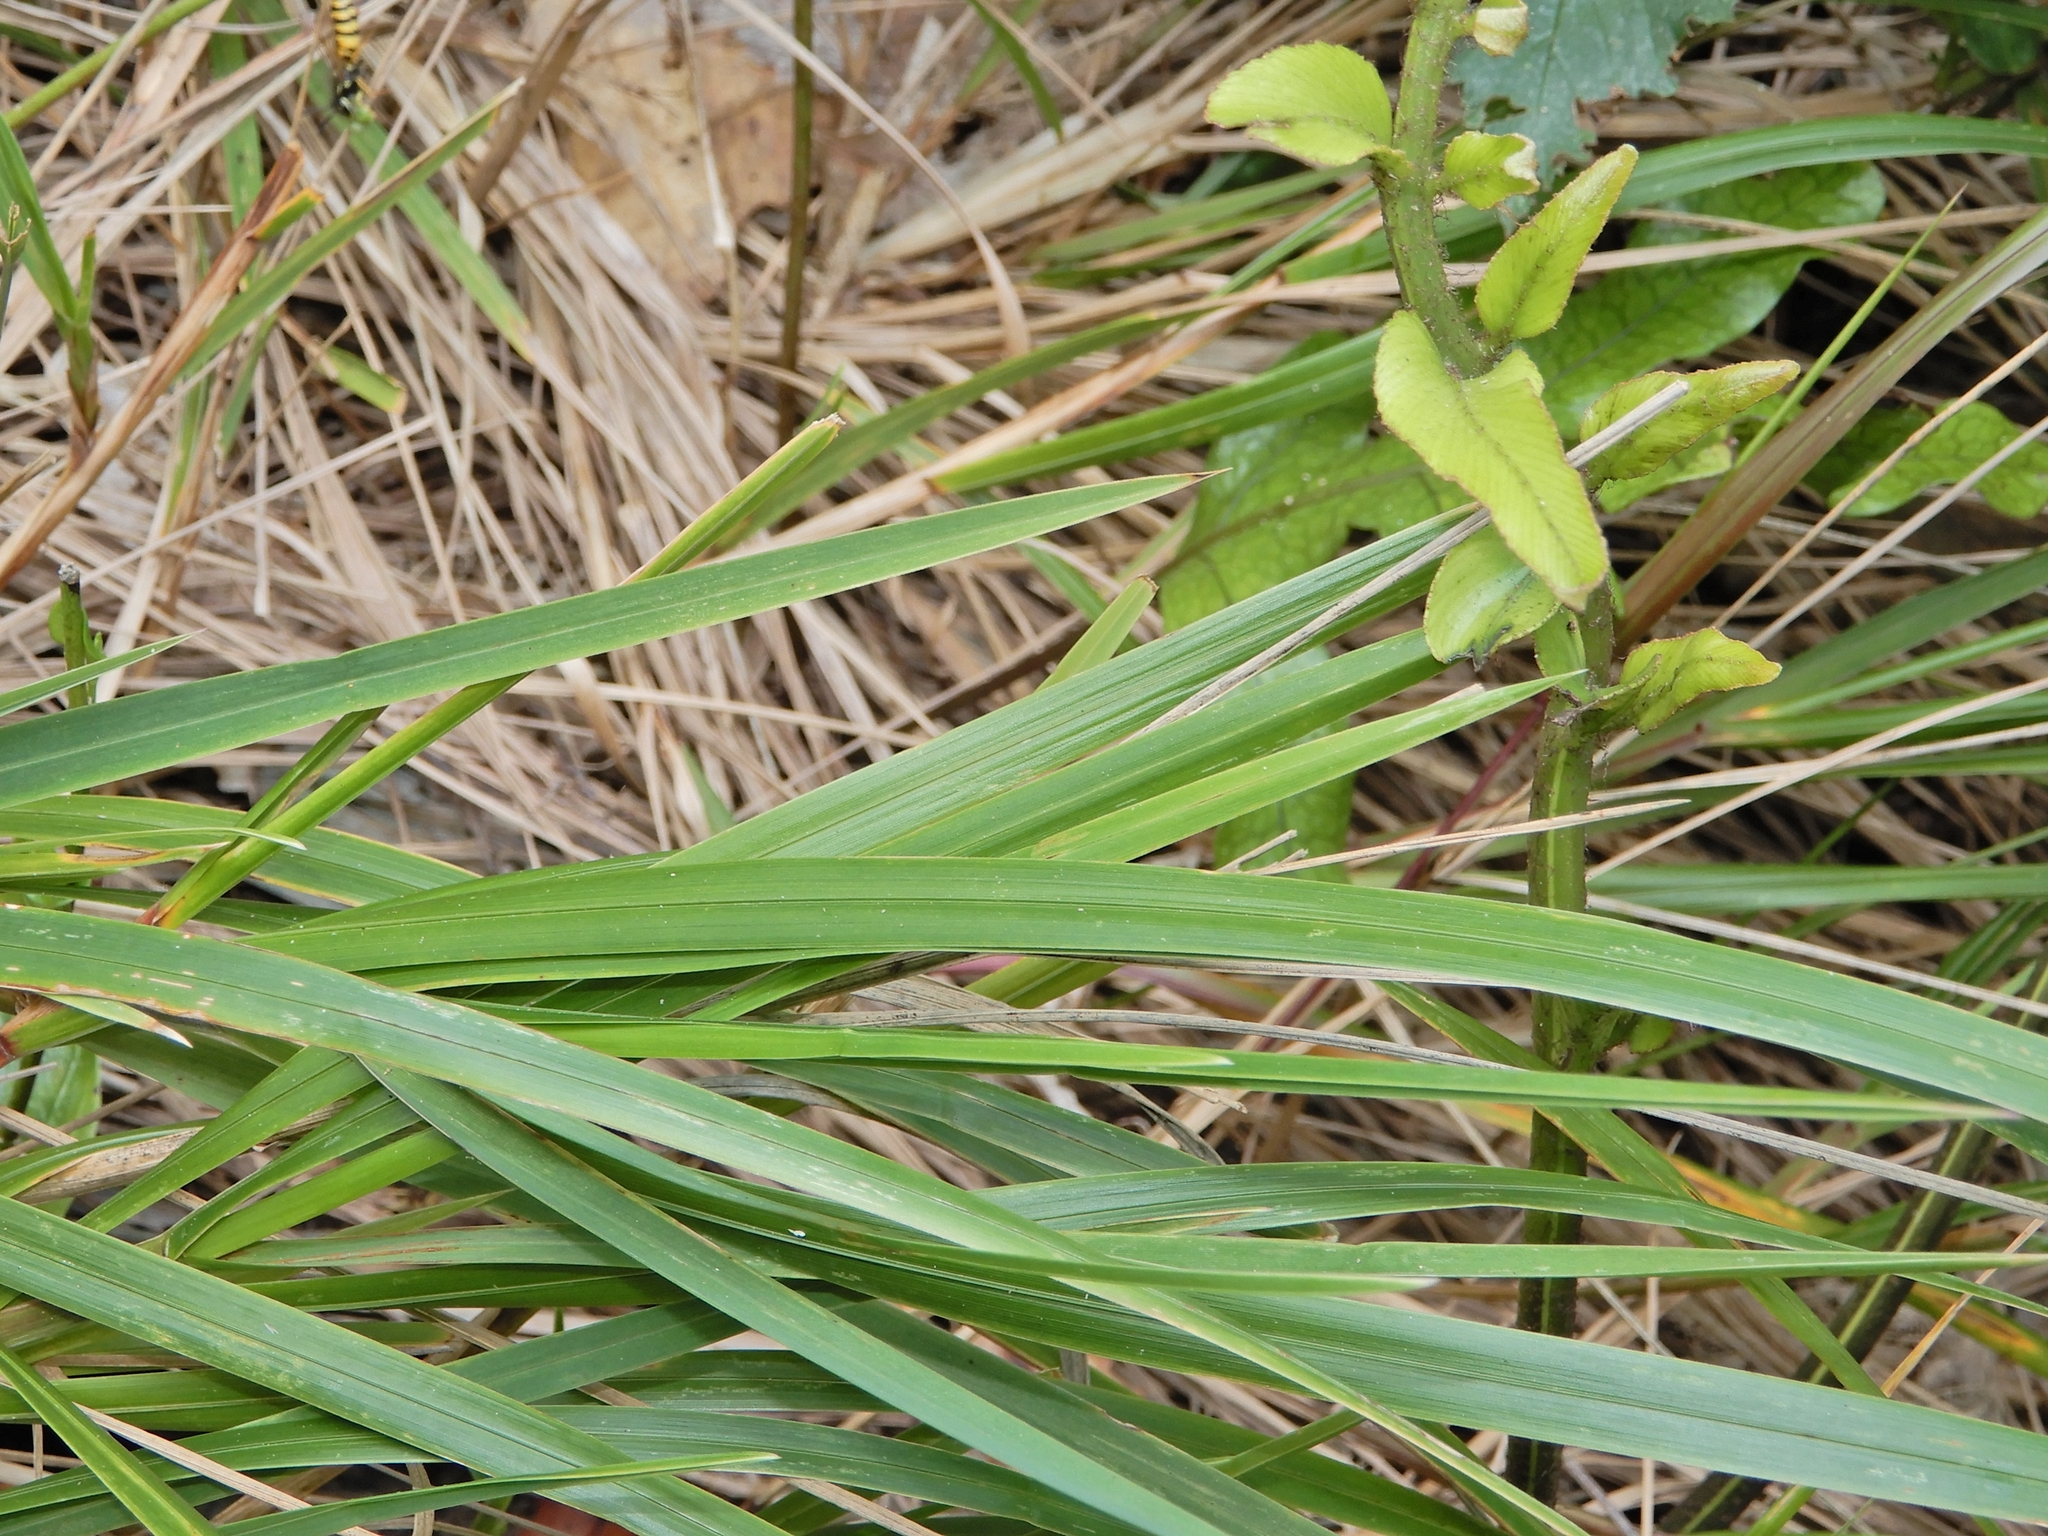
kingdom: Plantae
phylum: Tracheophyta
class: Liliopsida
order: Poales
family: Poaceae
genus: Poa
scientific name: Poa anceps
